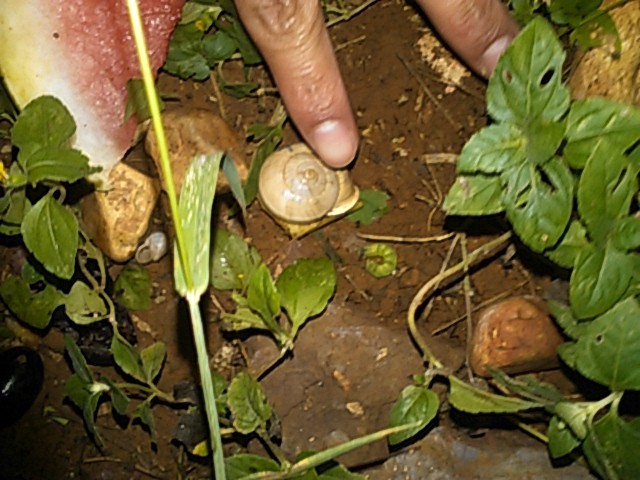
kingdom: Animalia
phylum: Mollusca
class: Gastropoda
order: Stylommatophora
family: Helicidae
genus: Otala
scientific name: Otala lactea
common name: Milk snail
